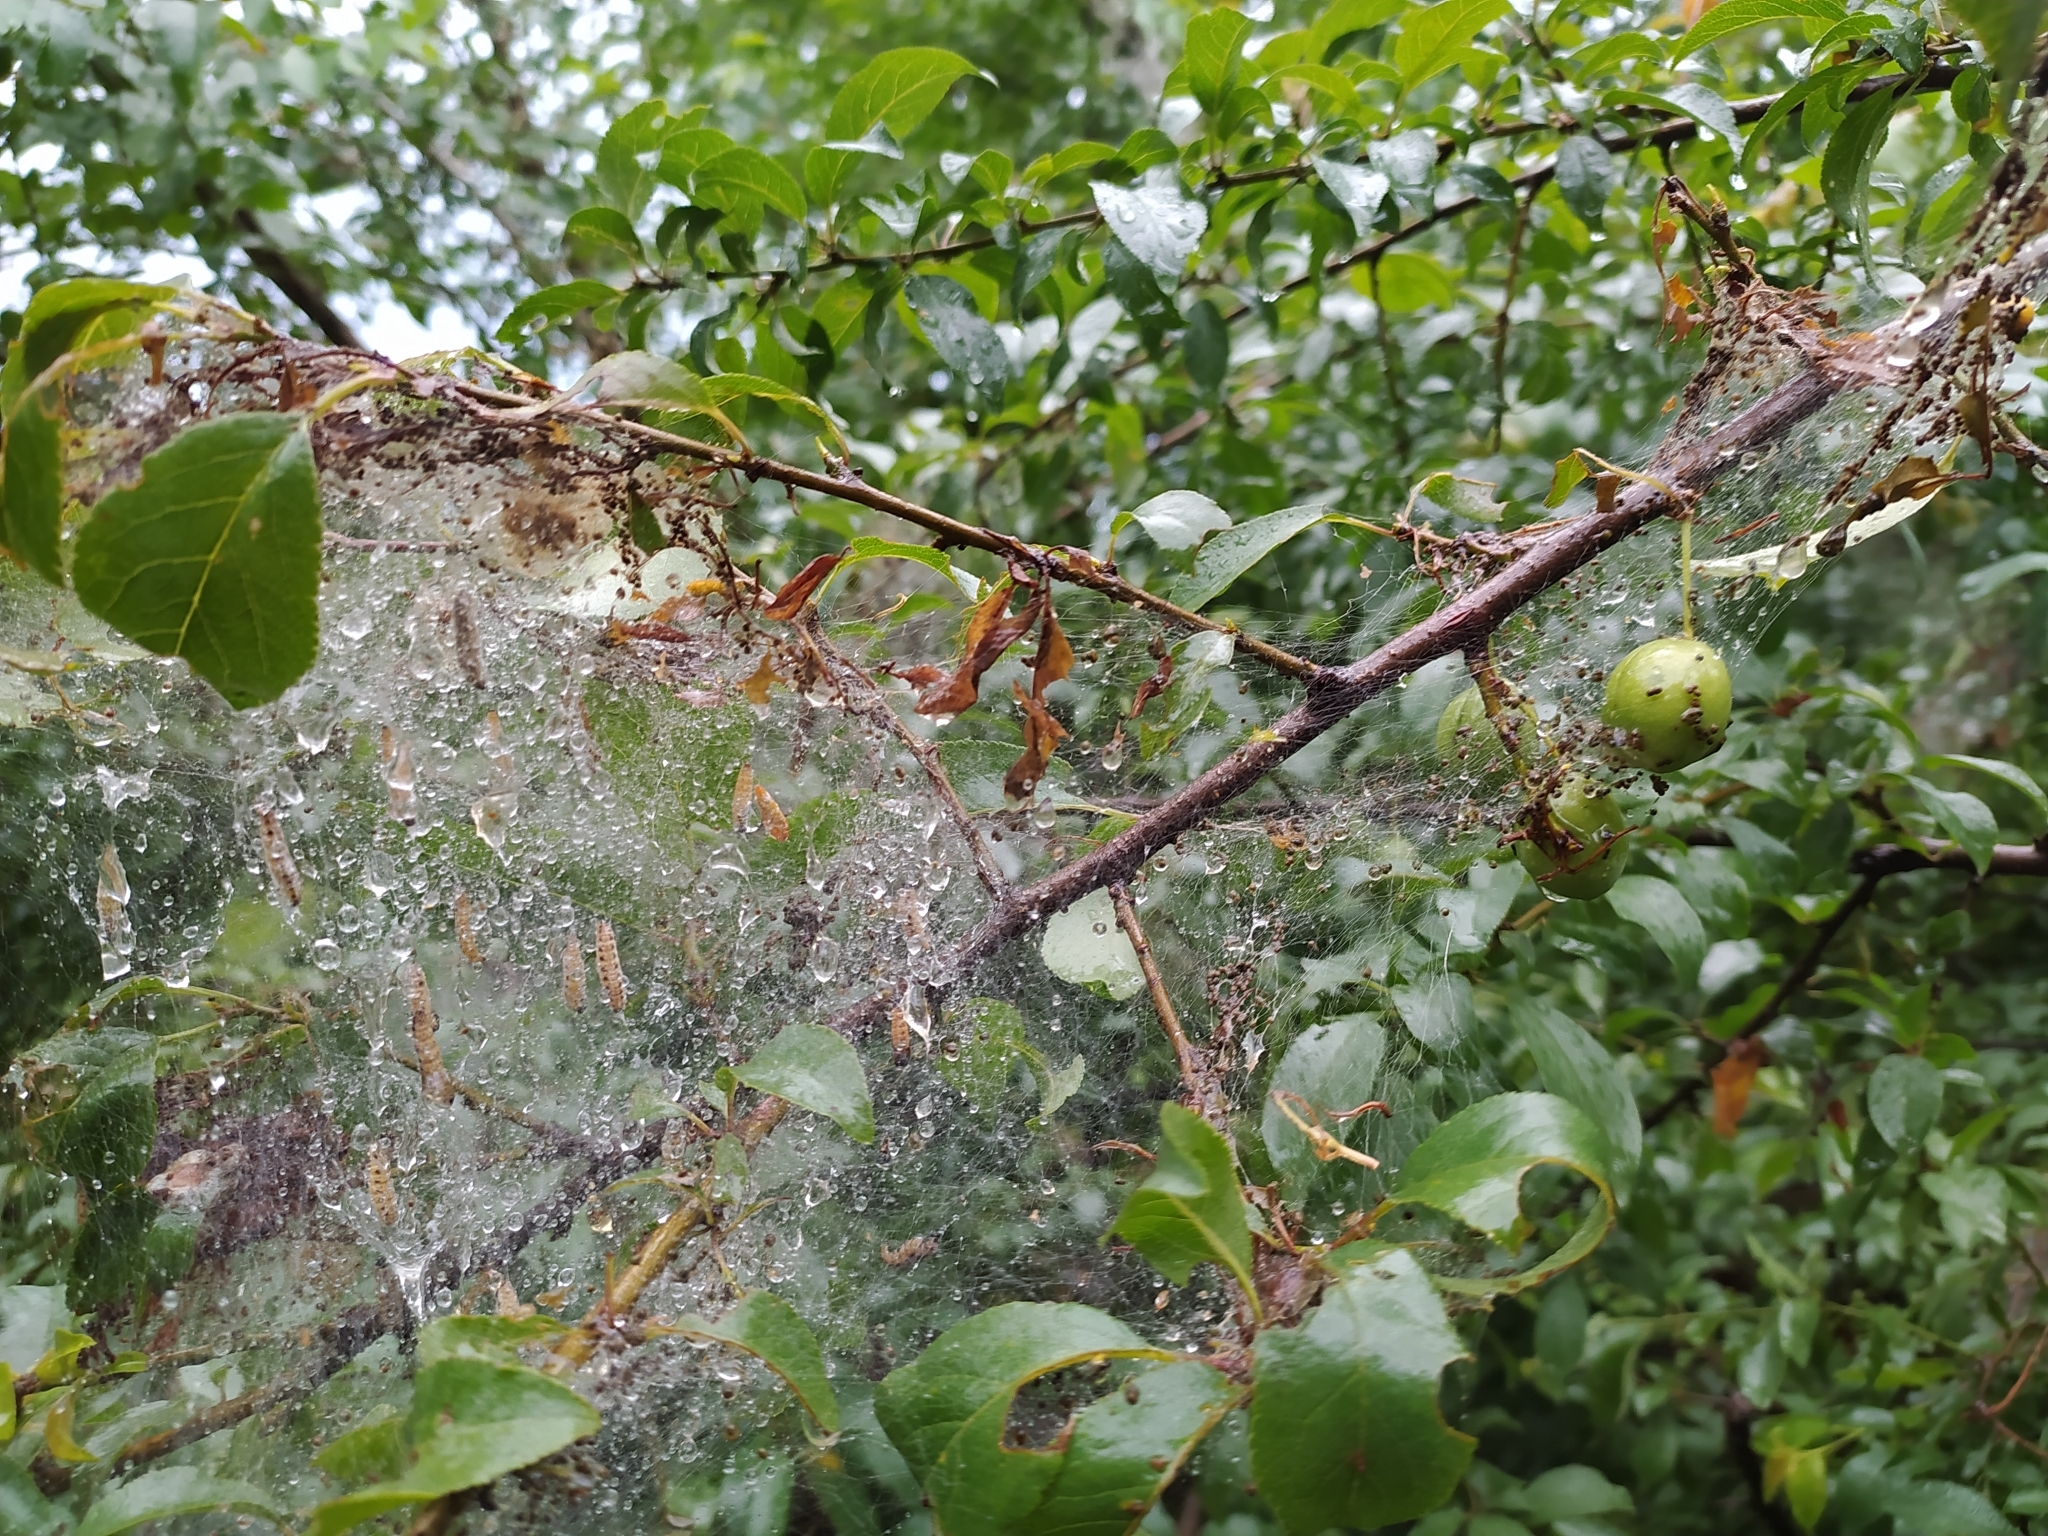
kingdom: Animalia
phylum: Arthropoda
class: Insecta
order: Lepidoptera
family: Yponomeutidae
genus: Yponomeuta
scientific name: Yponomeuta padella
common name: Orchard ermine
